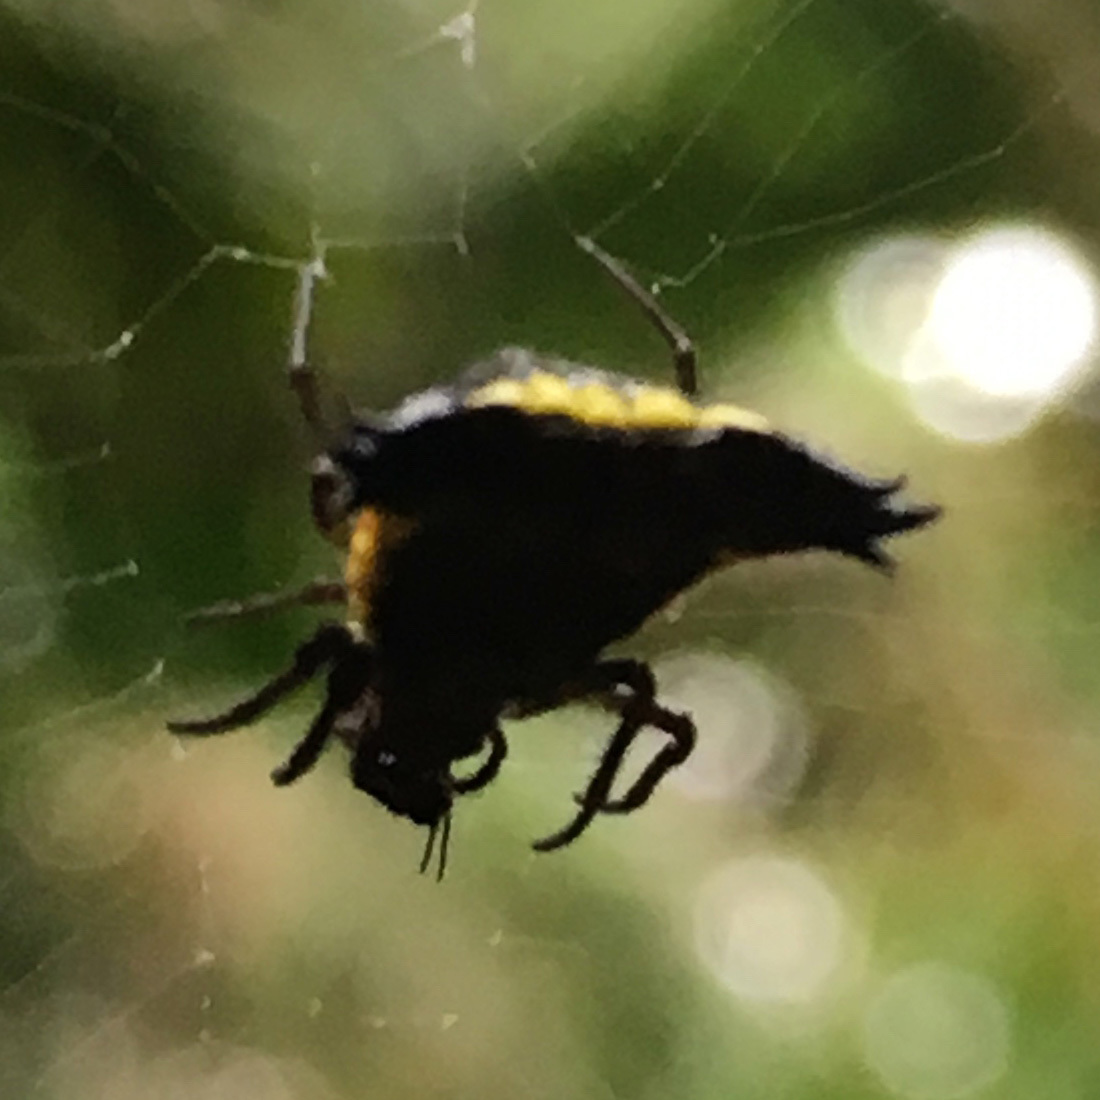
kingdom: Animalia
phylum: Arthropoda
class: Arachnida
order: Araneae
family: Araneidae
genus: Micrathena
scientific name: Micrathena triangularis
